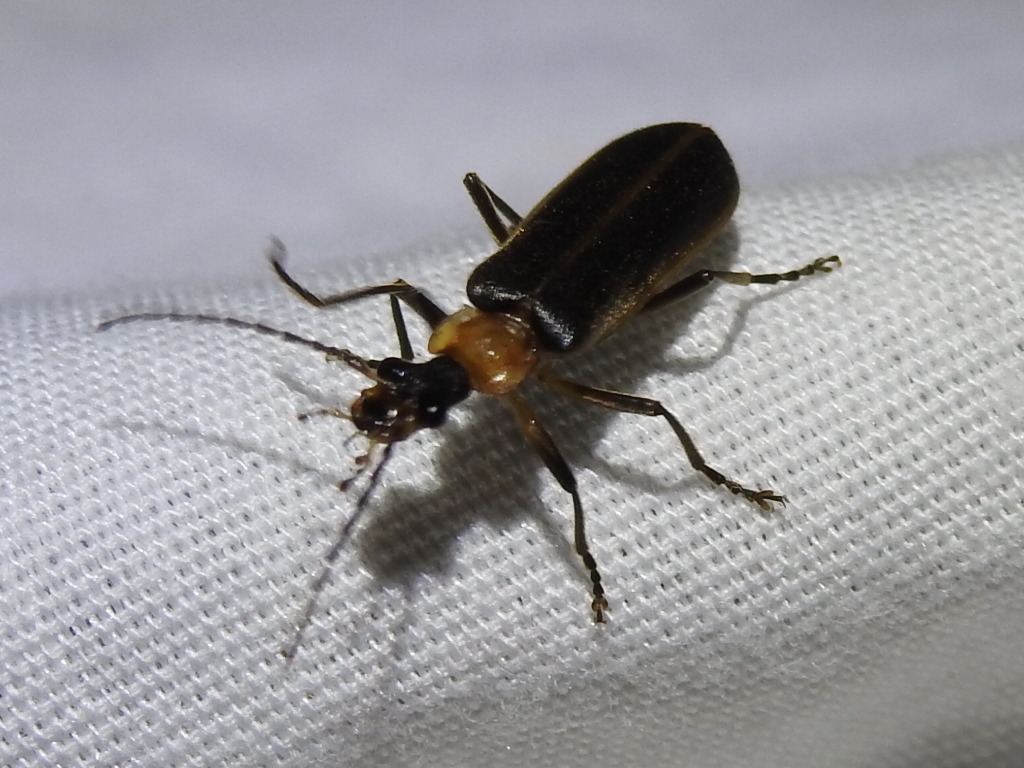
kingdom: Animalia
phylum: Arthropoda
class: Insecta
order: Coleoptera
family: Cantharidae
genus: Podabrus
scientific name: Podabrus flavicollis
